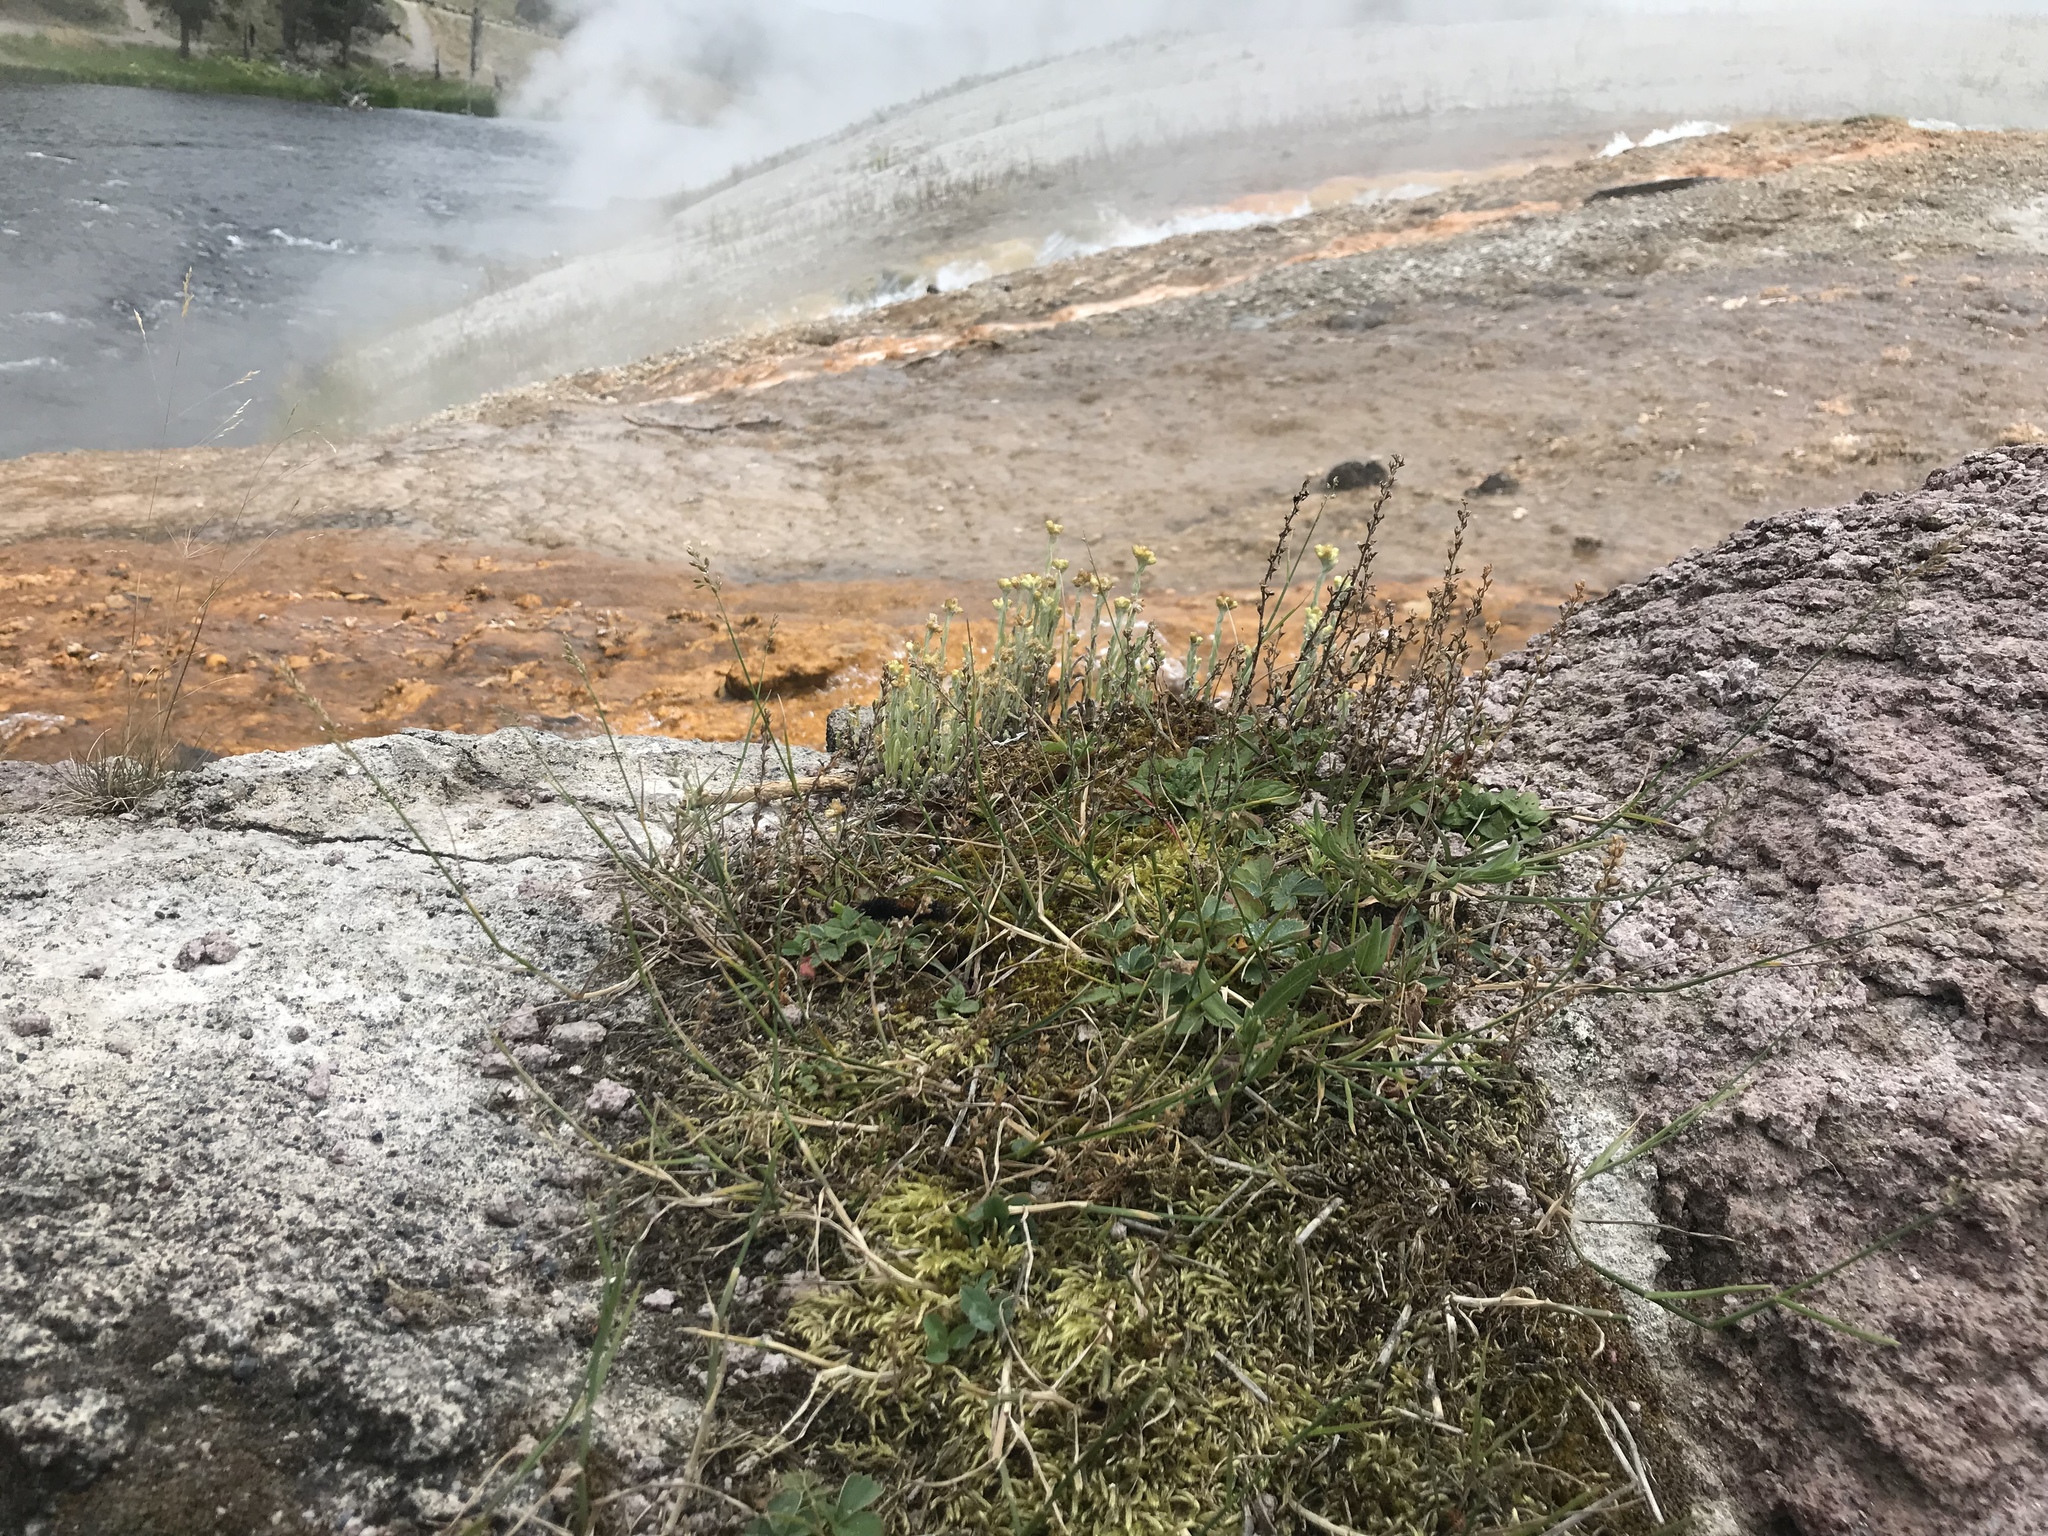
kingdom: Animalia
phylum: Arthropoda
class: Insecta
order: Lepidoptera
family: Erebidae
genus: Pyrrharctia
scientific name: Pyrrharctia isabella
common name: Isabella tiger moth
